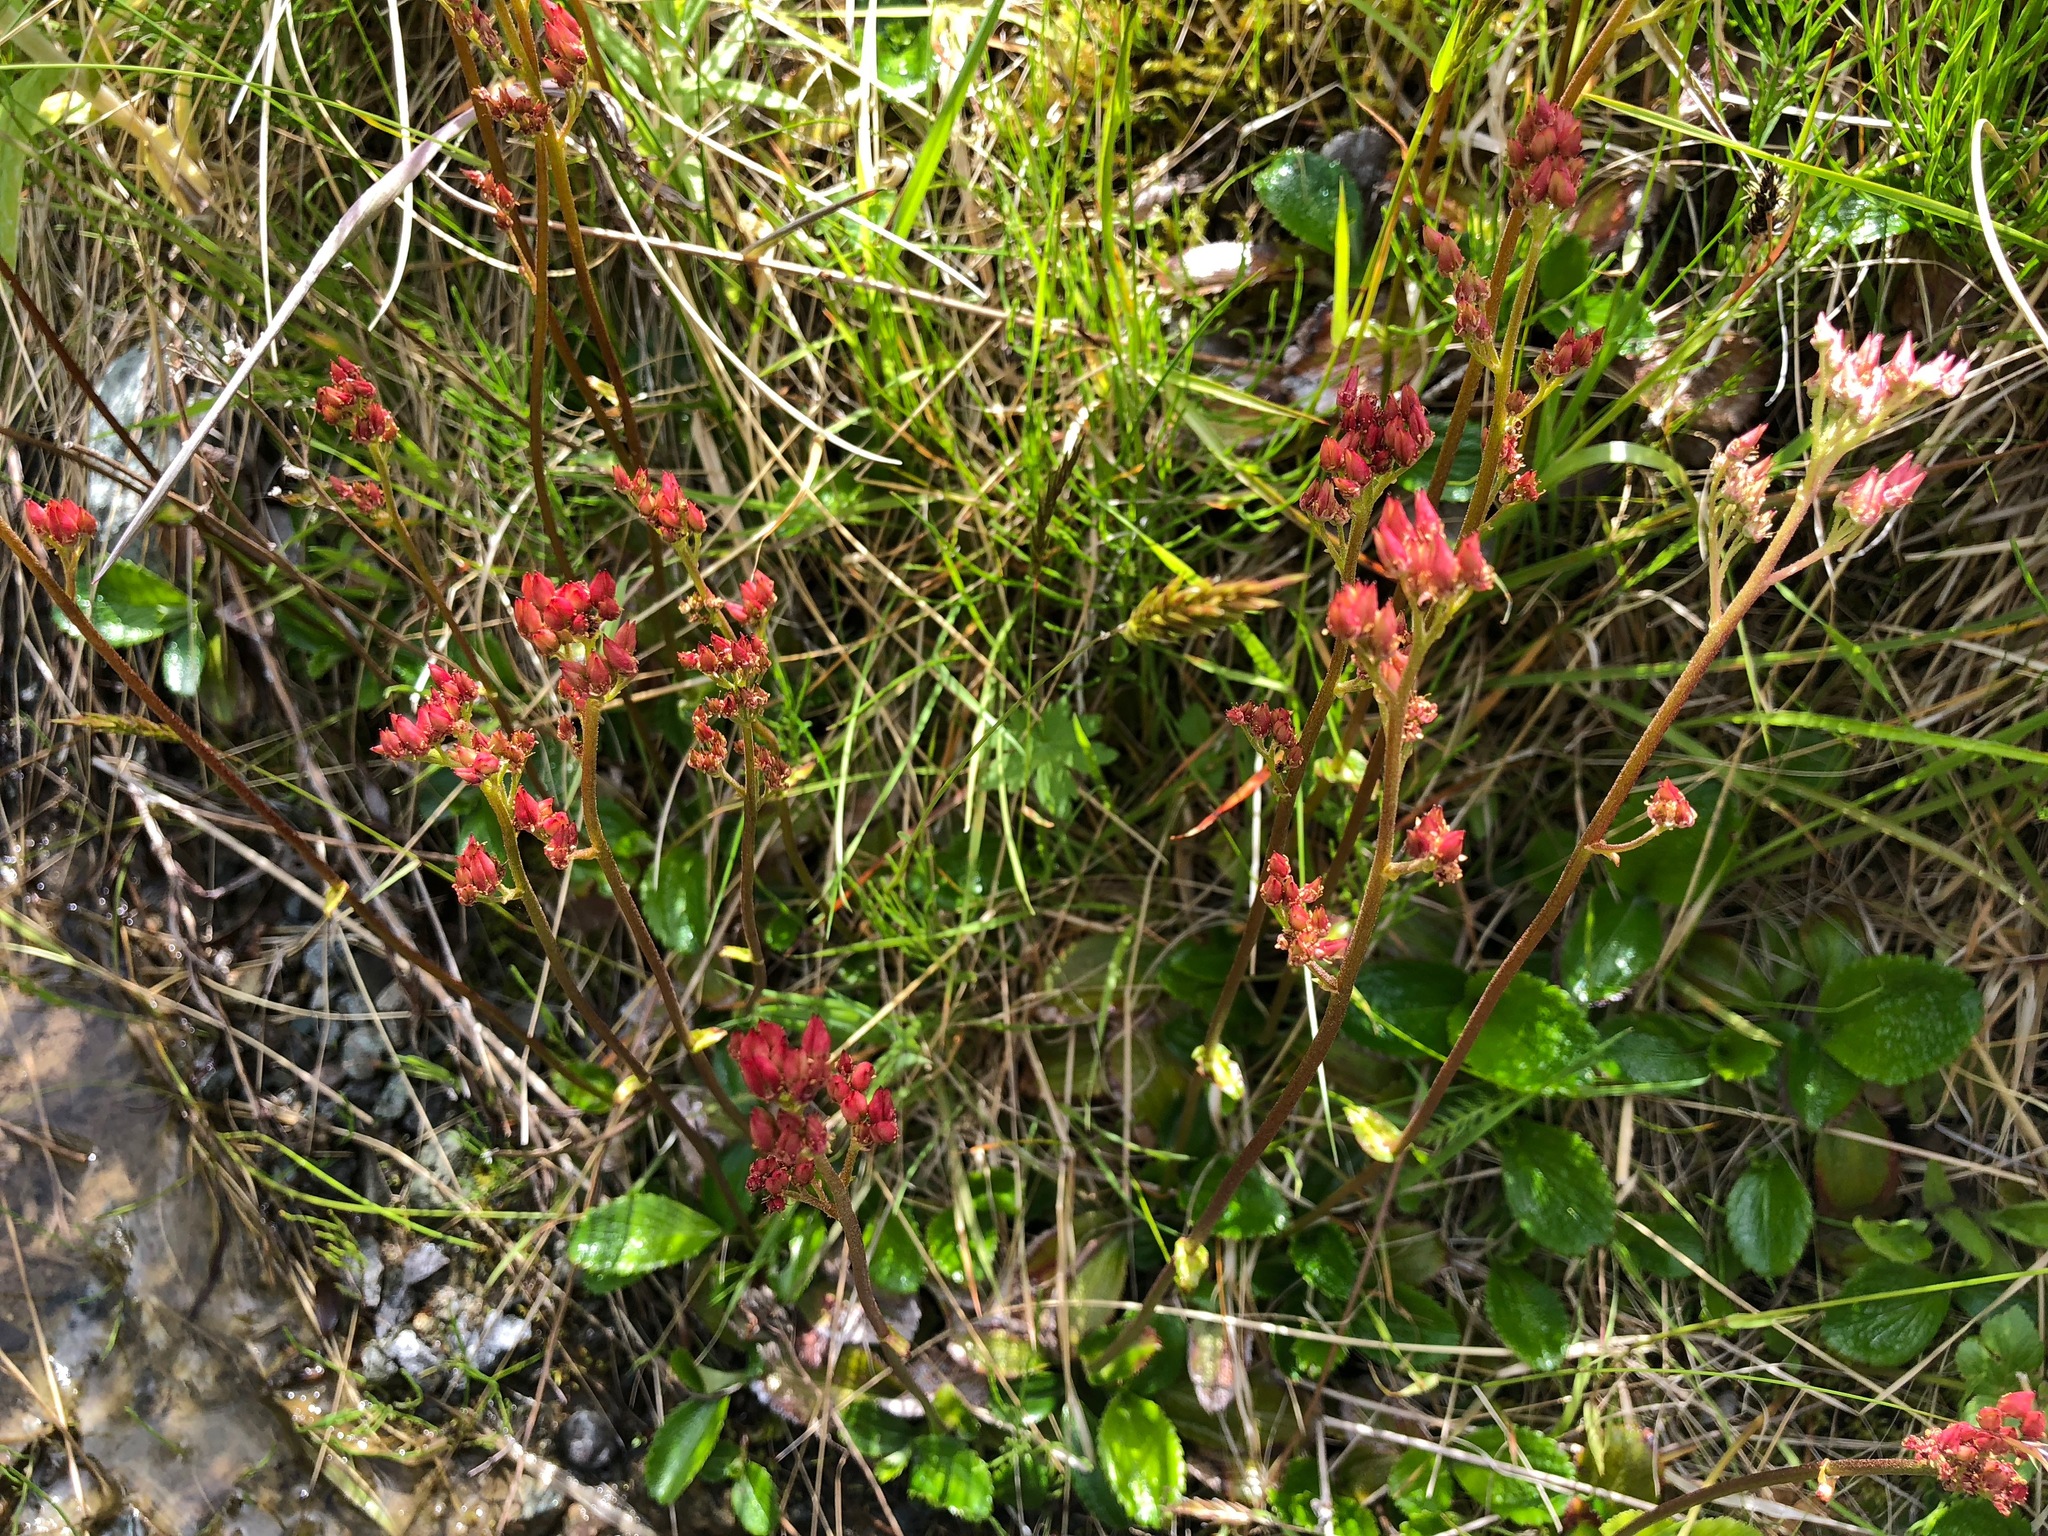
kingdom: Plantae
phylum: Tracheophyta
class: Magnoliopsida
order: Saxifragales
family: Saxifragaceae
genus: Leptarrhena
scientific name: Leptarrhena pyrolifolia
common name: Leatherleaf-saxifrage
